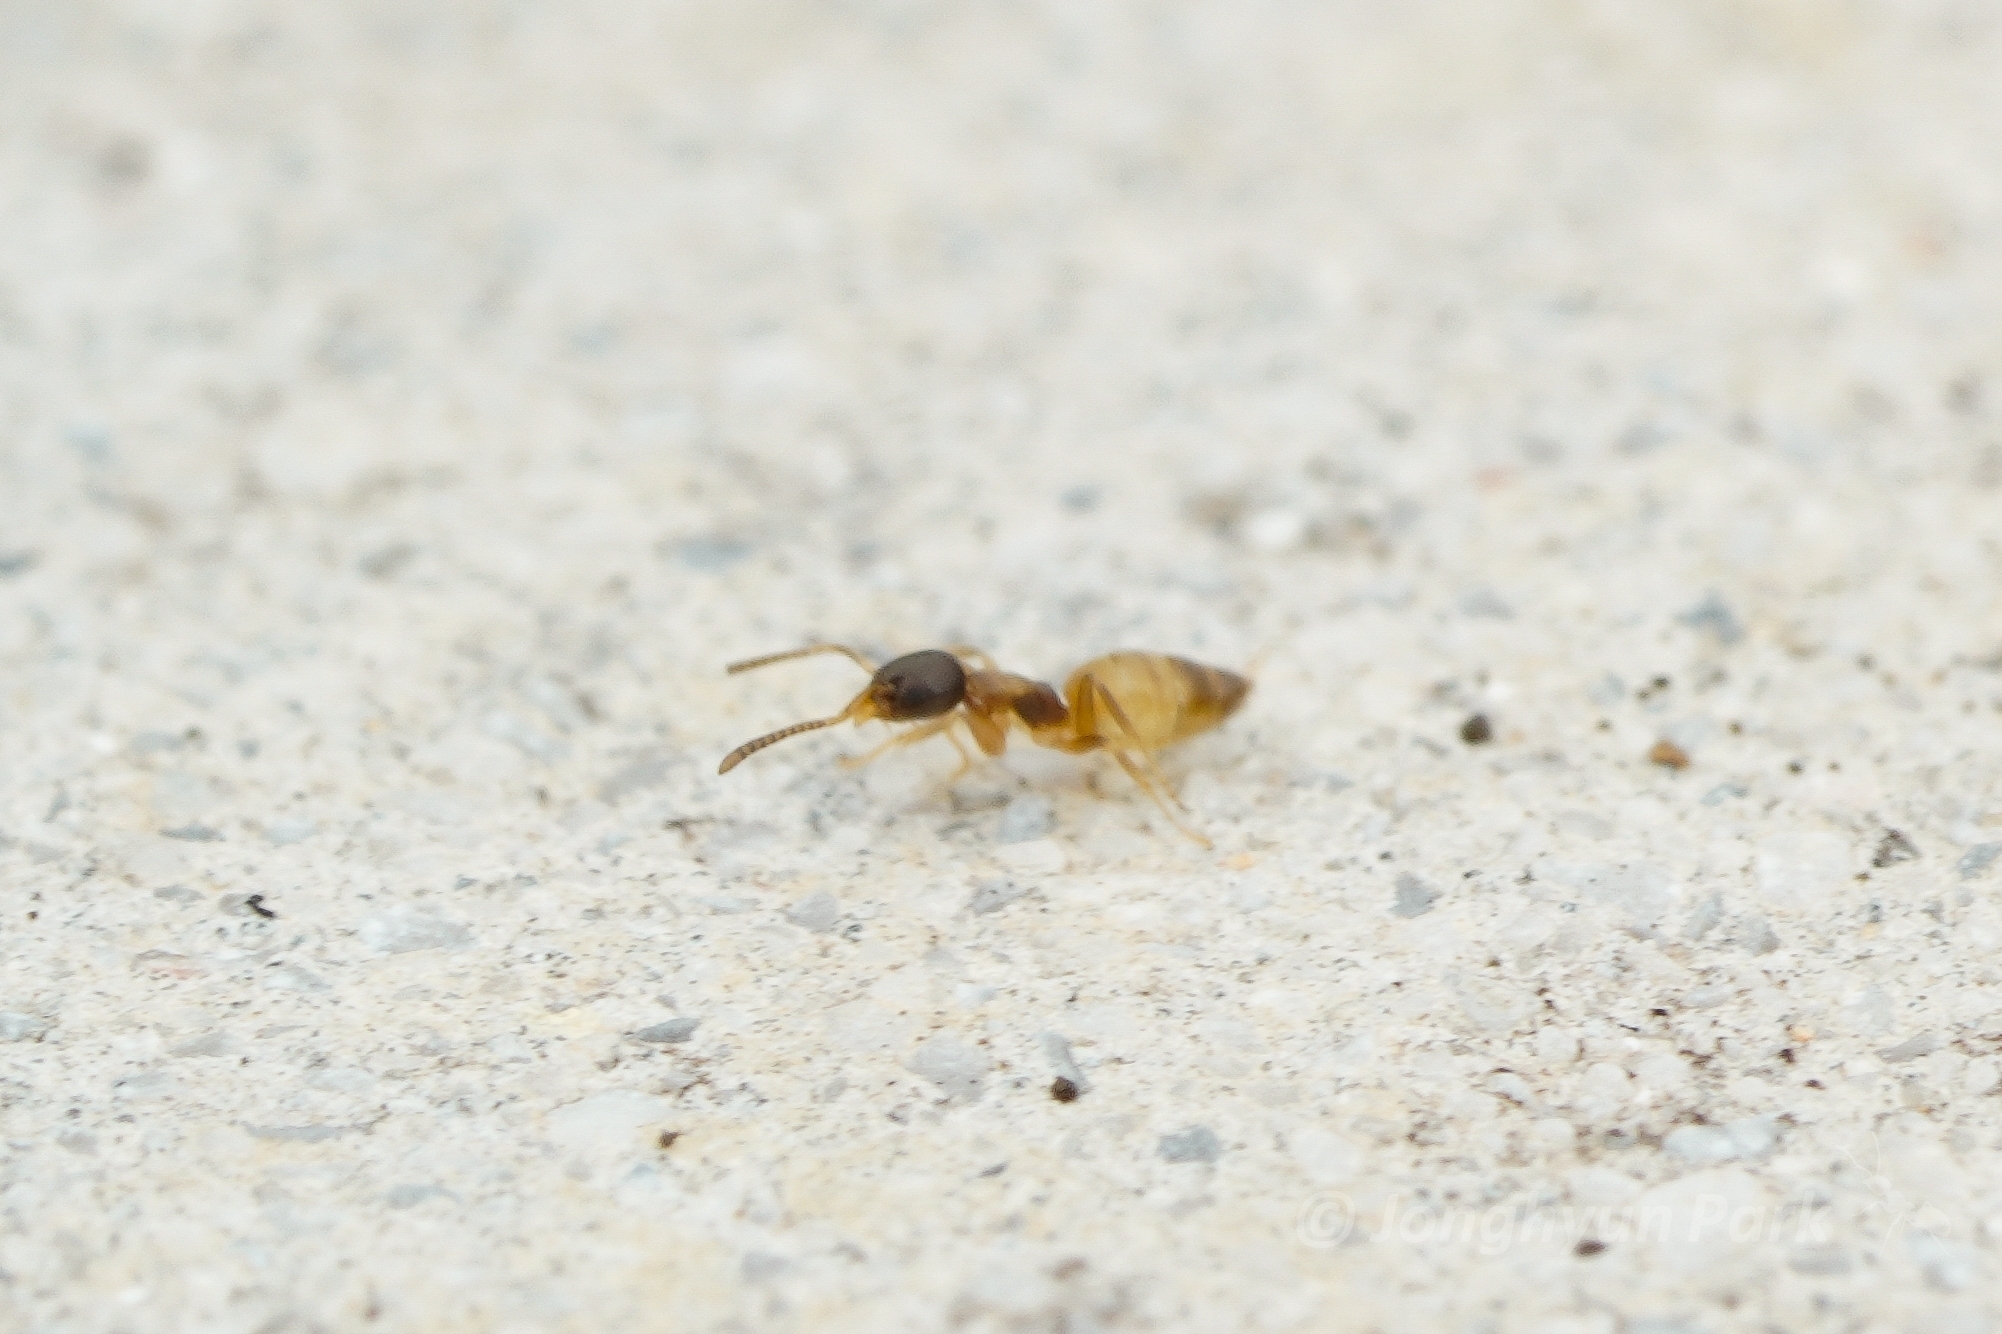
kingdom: Animalia
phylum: Arthropoda
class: Insecta
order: Hymenoptera
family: Formicidae
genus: Tapinoma
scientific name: Tapinoma melanocephalum
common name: Ghost ant
